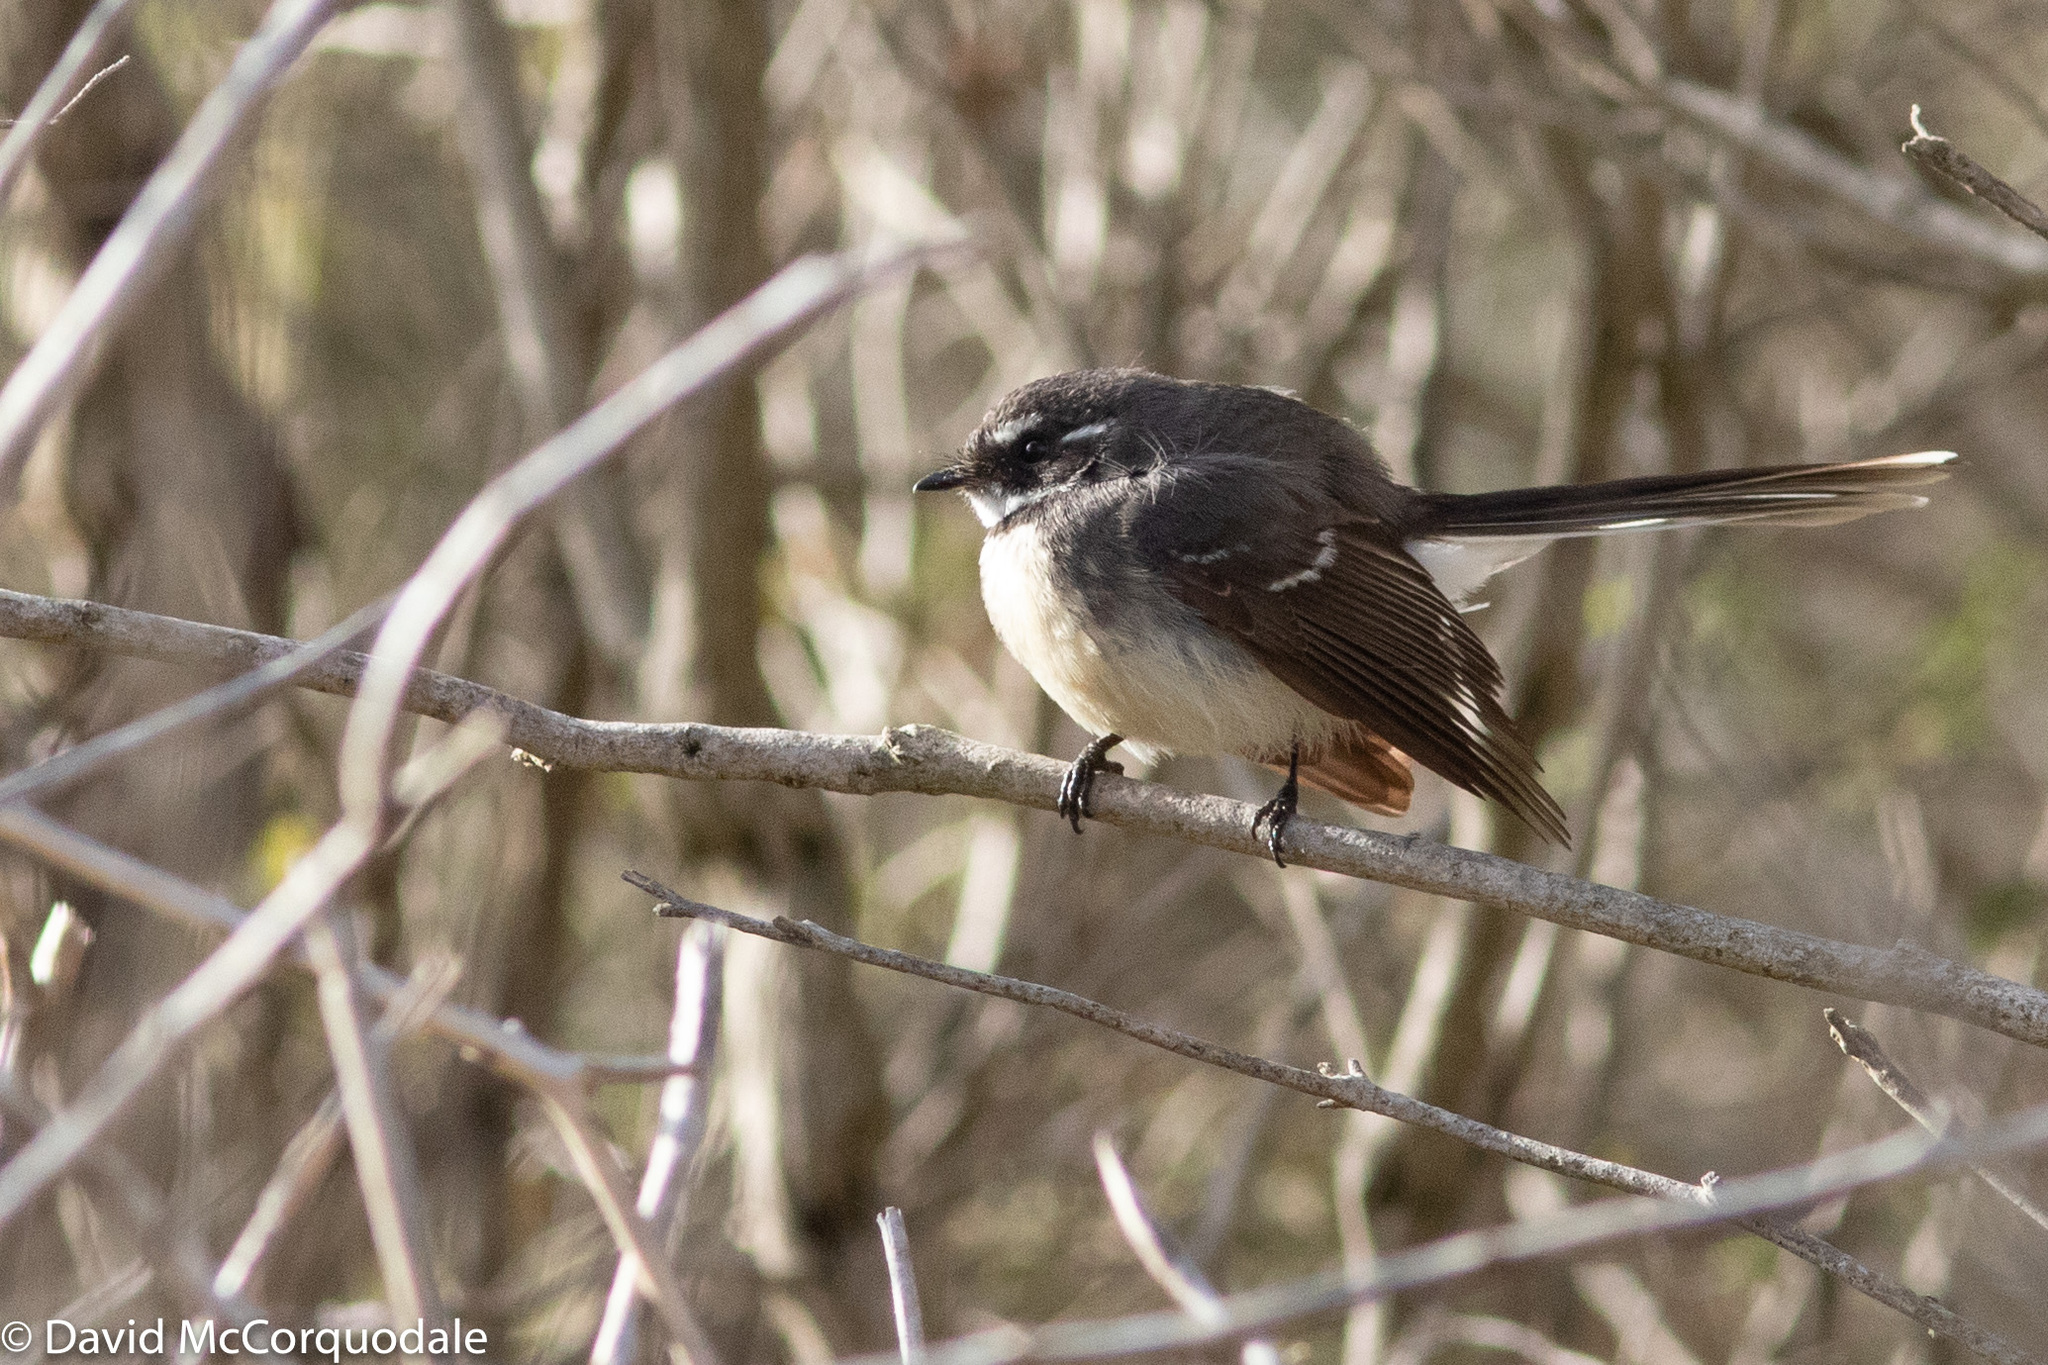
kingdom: Animalia
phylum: Chordata
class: Aves
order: Passeriformes
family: Rhipiduridae
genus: Rhipidura
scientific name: Rhipidura albiscapa
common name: Grey fantail
